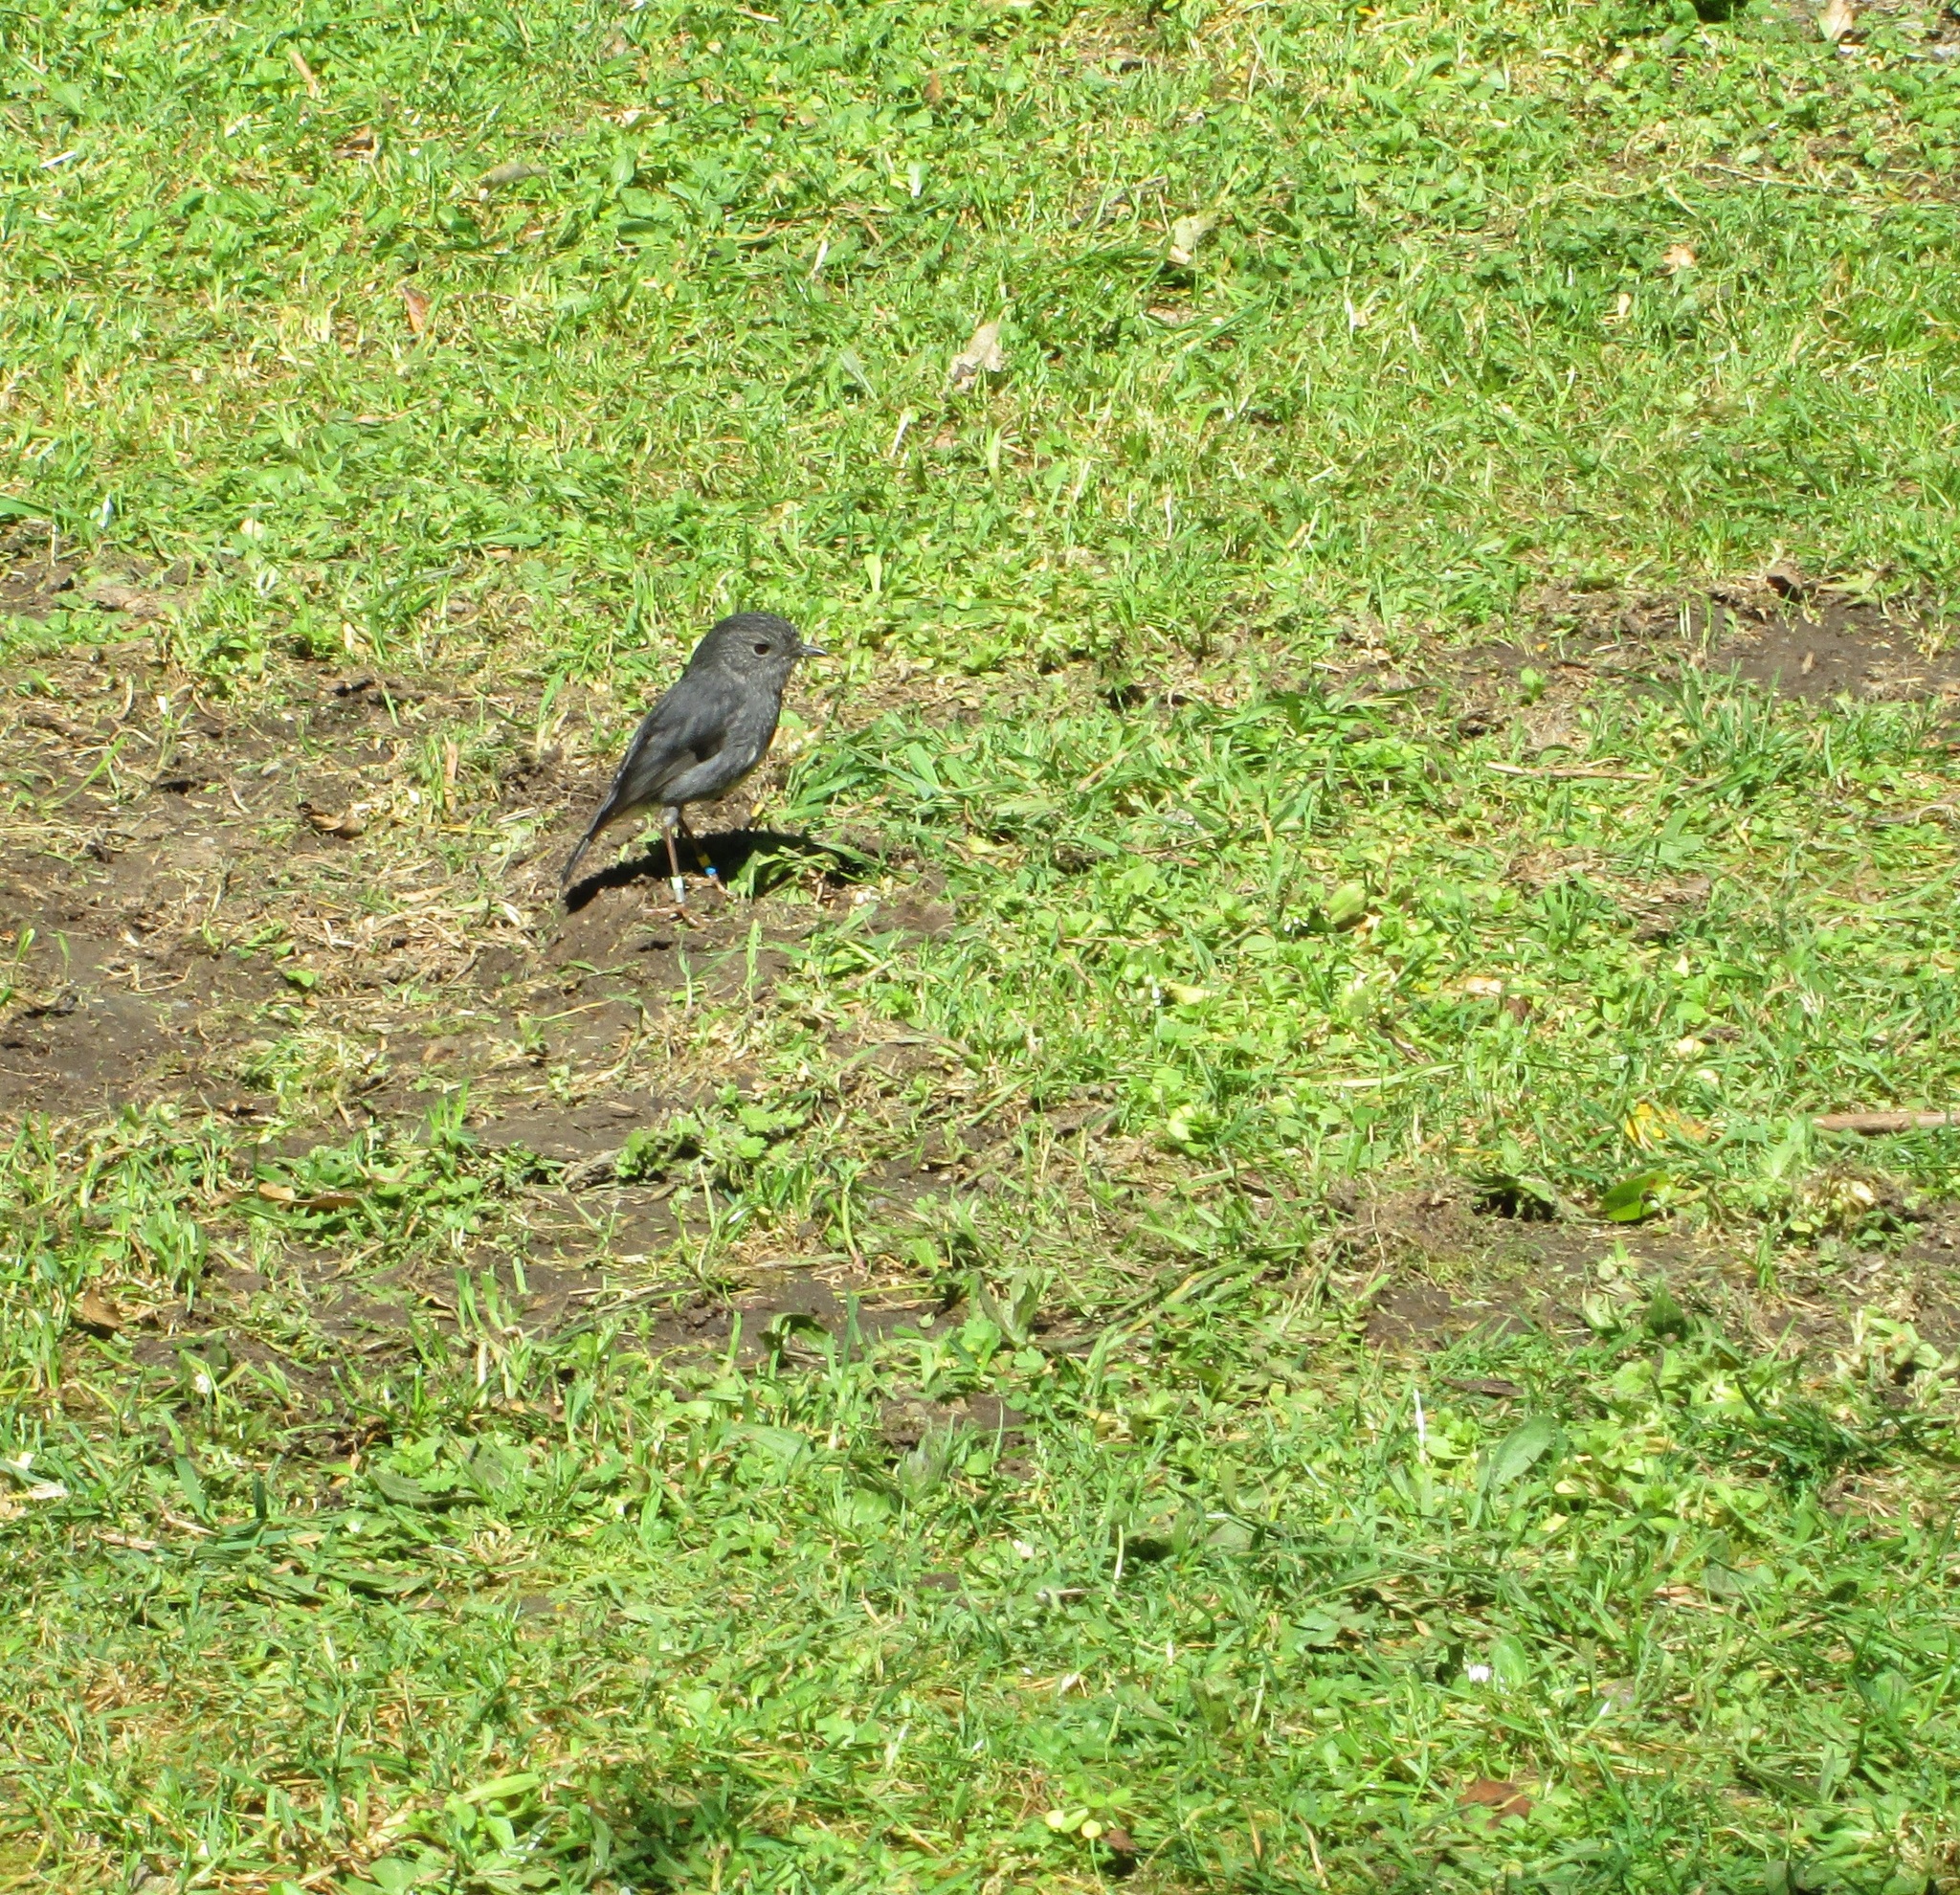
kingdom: Animalia
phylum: Chordata
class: Aves
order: Passeriformes
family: Petroicidae
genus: Petroica
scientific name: Petroica australis
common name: New zealand robin
